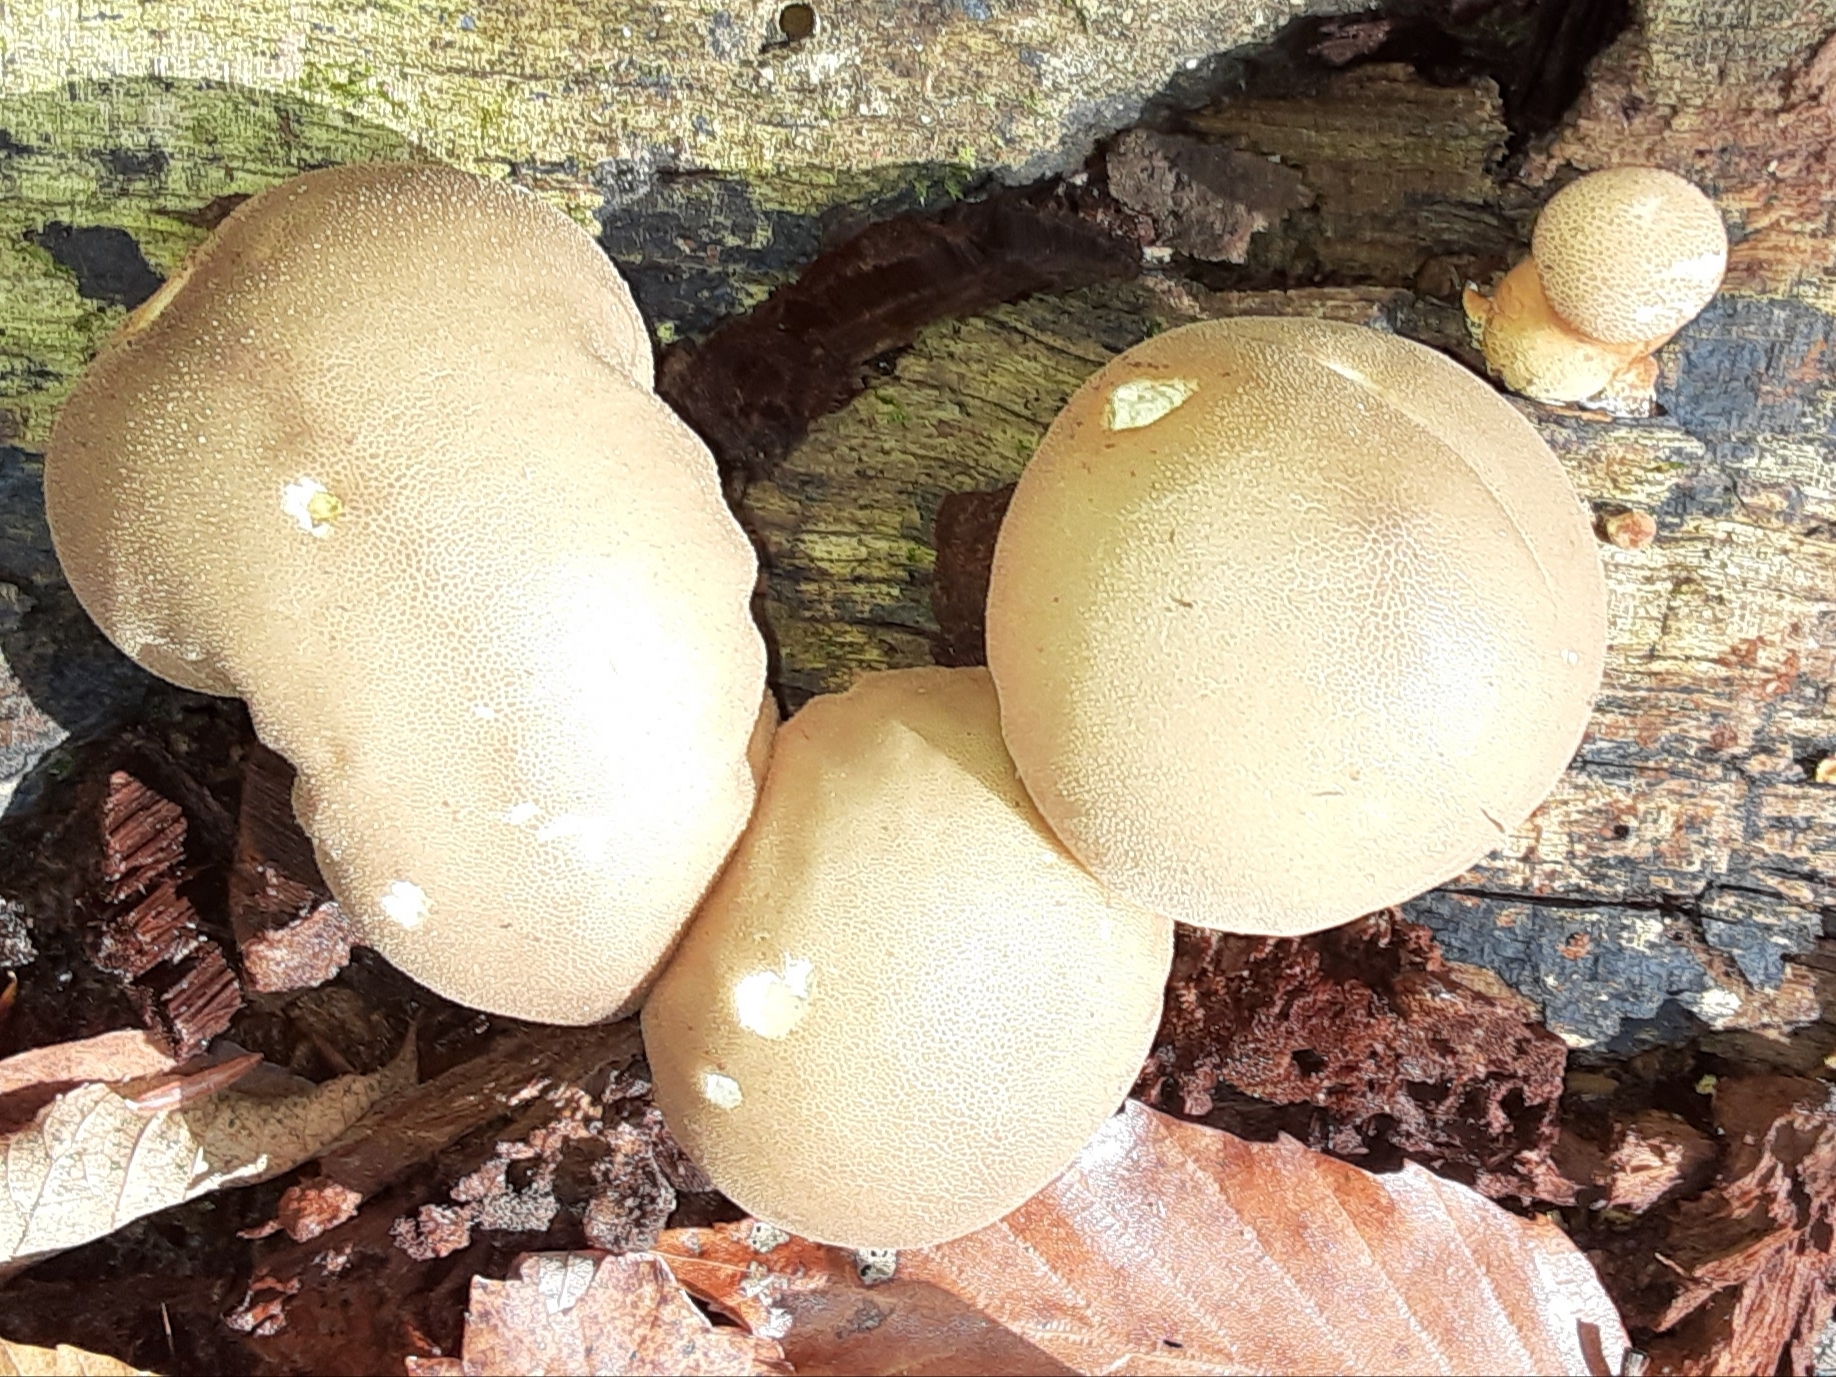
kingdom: Fungi
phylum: Basidiomycota
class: Agaricomycetes
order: Agaricales
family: Lycoperdaceae
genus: Apioperdon
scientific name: Apioperdon pyriforme
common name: Pear-shaped puffball
